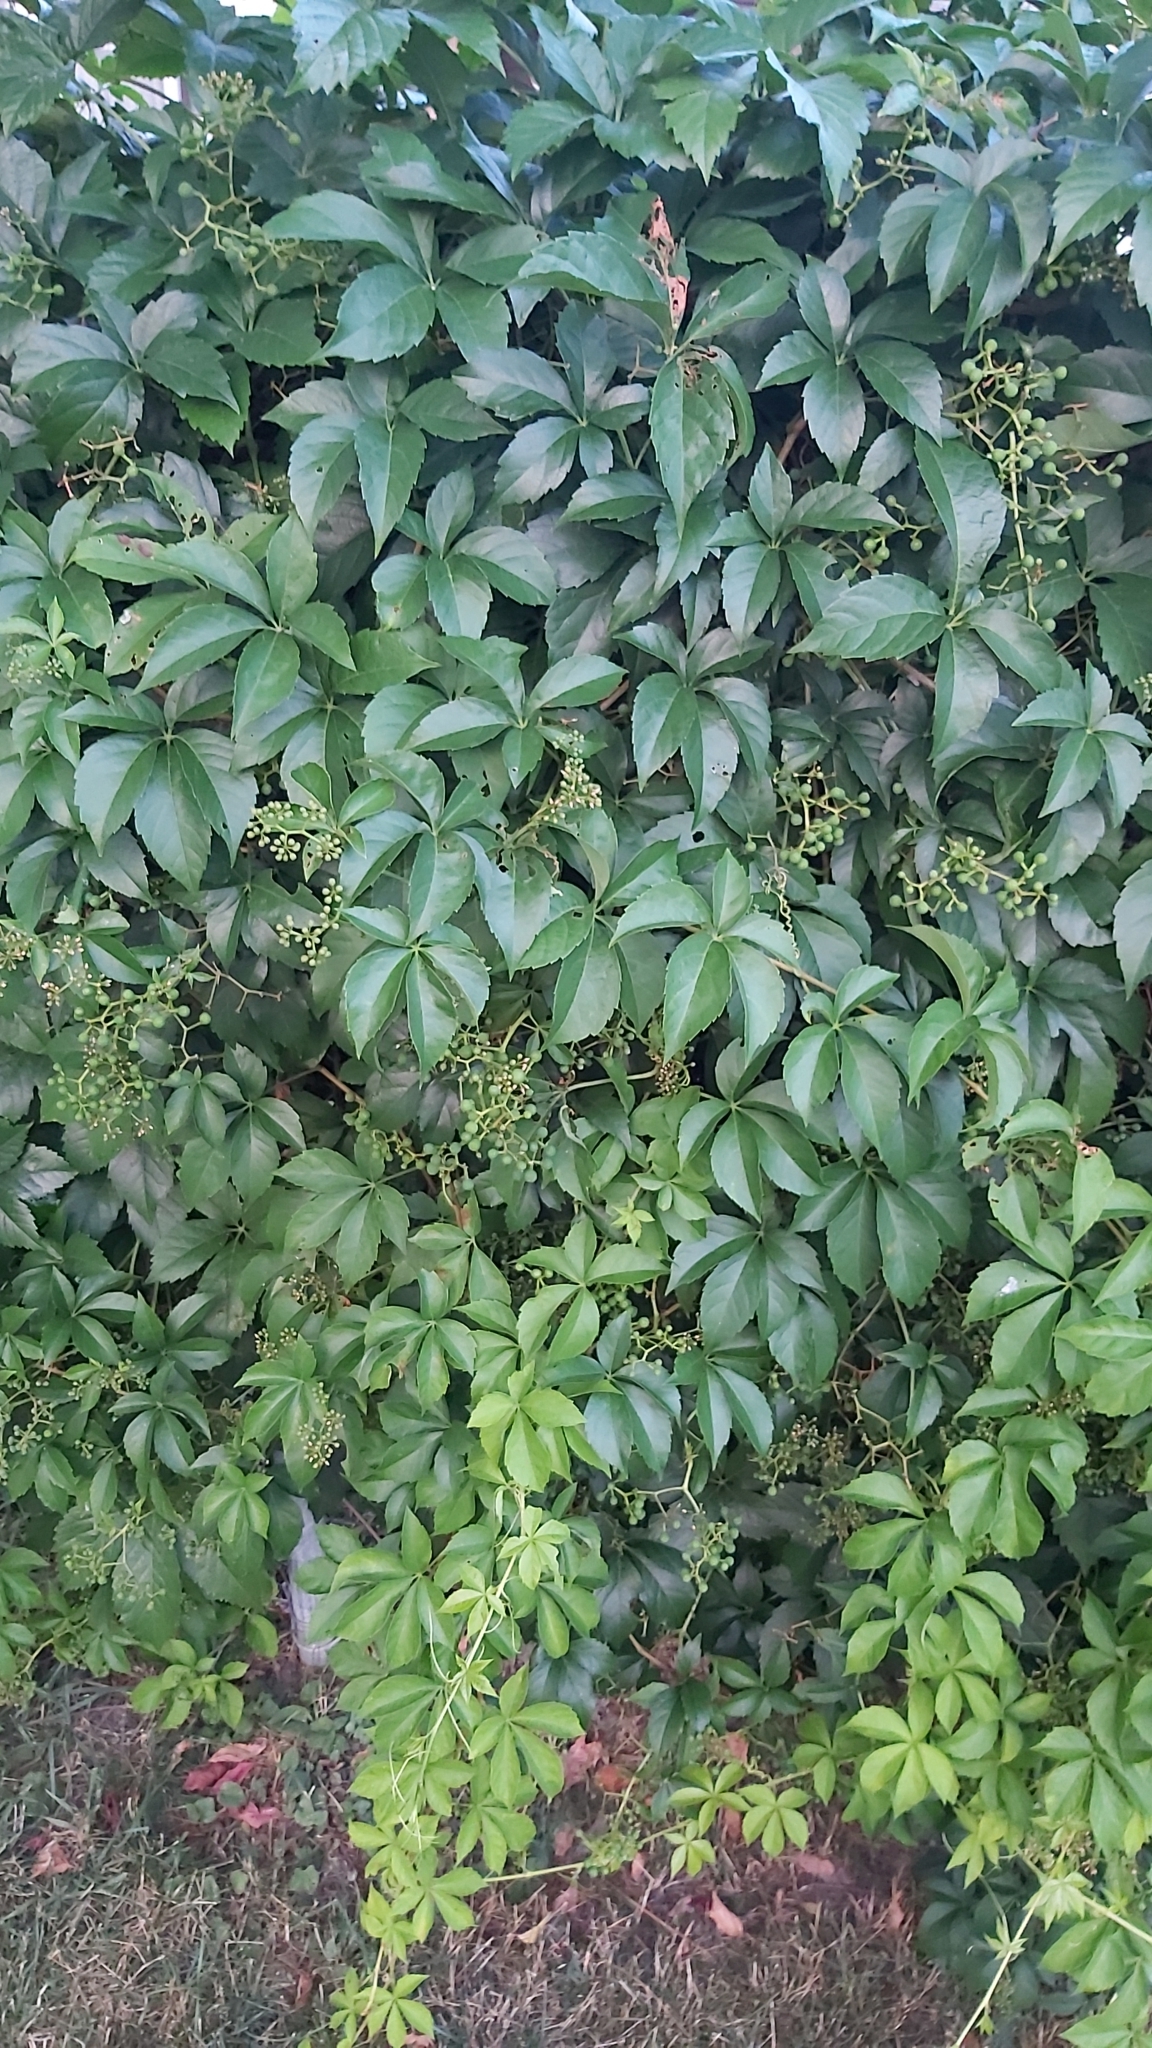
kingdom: Plantae
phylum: Tracheophyta
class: Magnoliopsida
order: Vitales
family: Vitaceae
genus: Parthenocissus
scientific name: Parthenocissus quinquefolia
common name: Virginia-creeper
